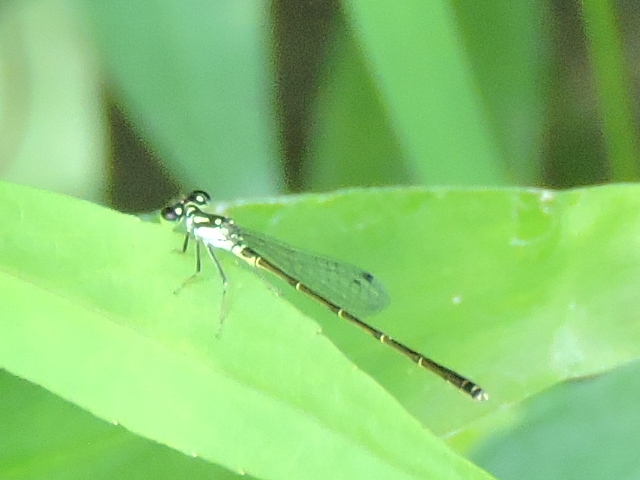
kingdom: Animalia
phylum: Arthropoda
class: Insecta
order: Odonata
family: Coenagrionidae
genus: Ischnura
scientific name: Ischnura posita
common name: Fragile forktail
